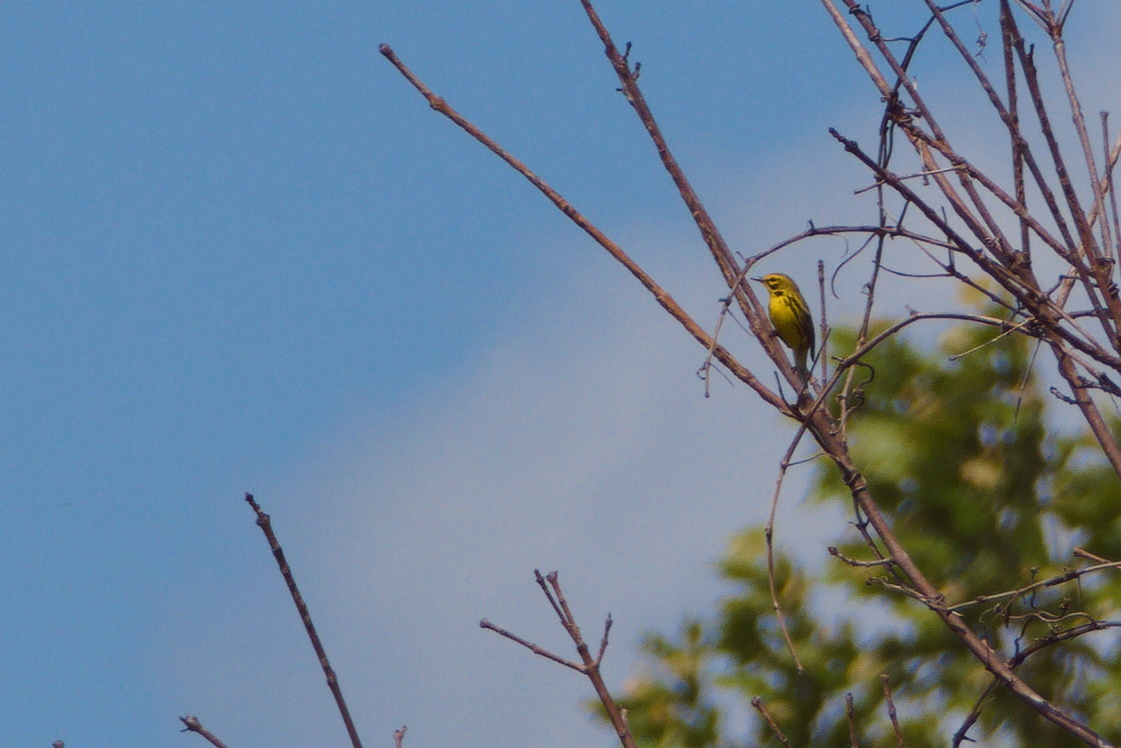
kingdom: Animalia
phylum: Chordata
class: Aves
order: Passeriformes
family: Parulidae
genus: Setophaga
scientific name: Setophaga discolor
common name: Prairie warbler
